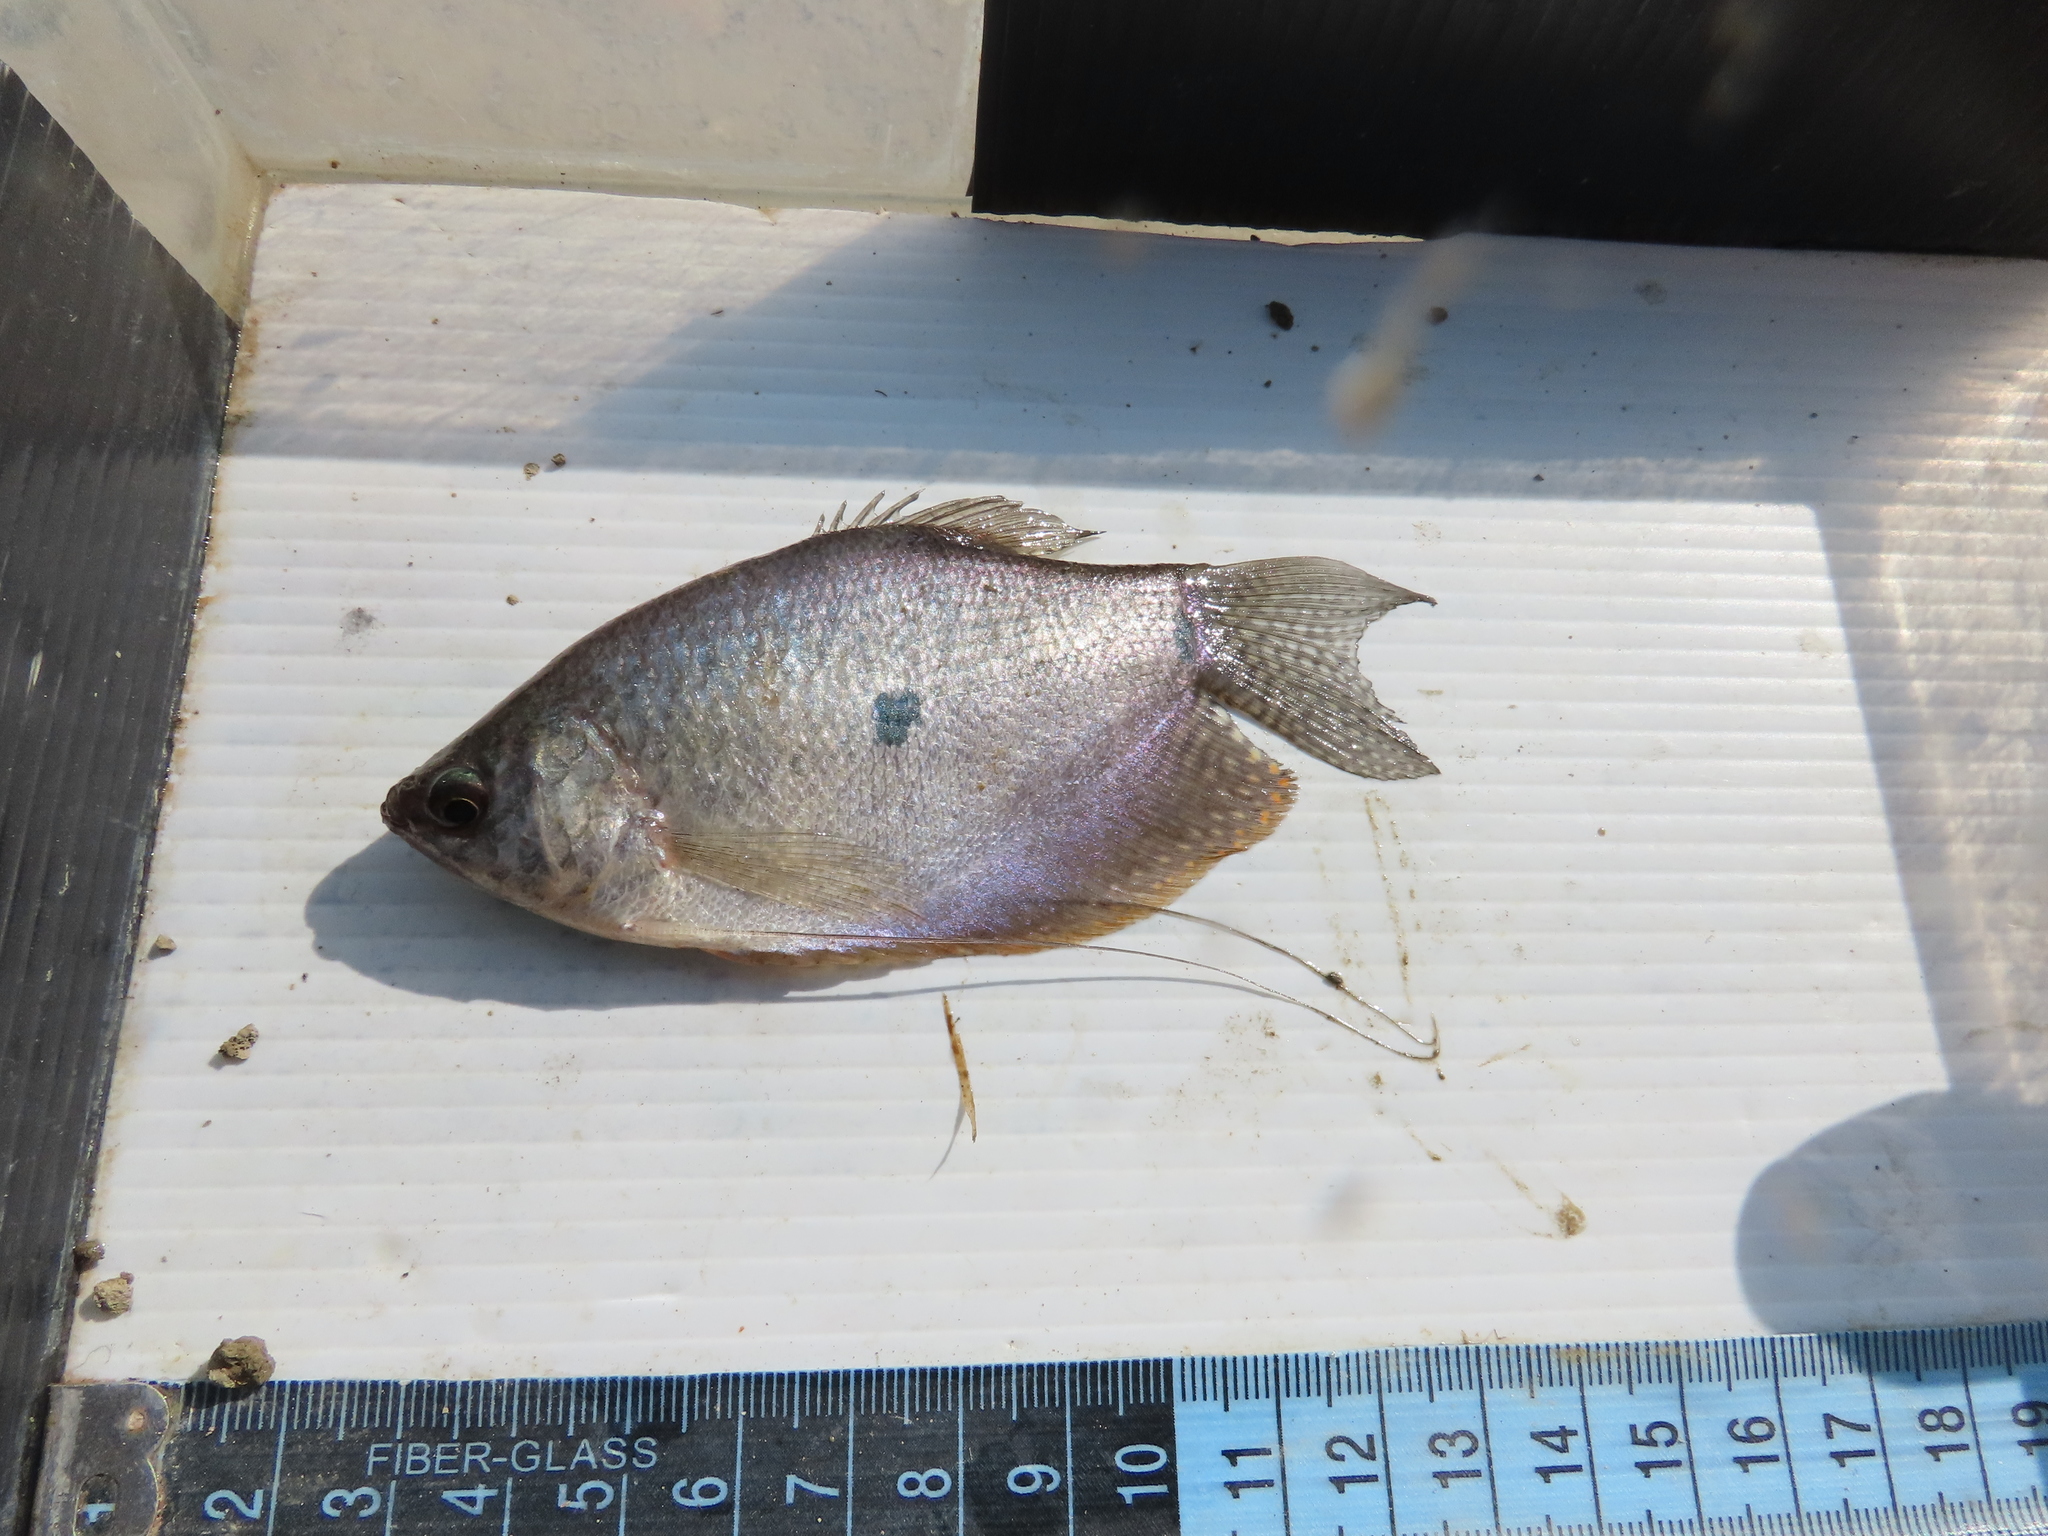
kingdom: Animalia
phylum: Chordata
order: Perciformes
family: Osphronemidae
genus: Trichopodus
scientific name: Trichopodus trichopterus
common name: Blue gourami
